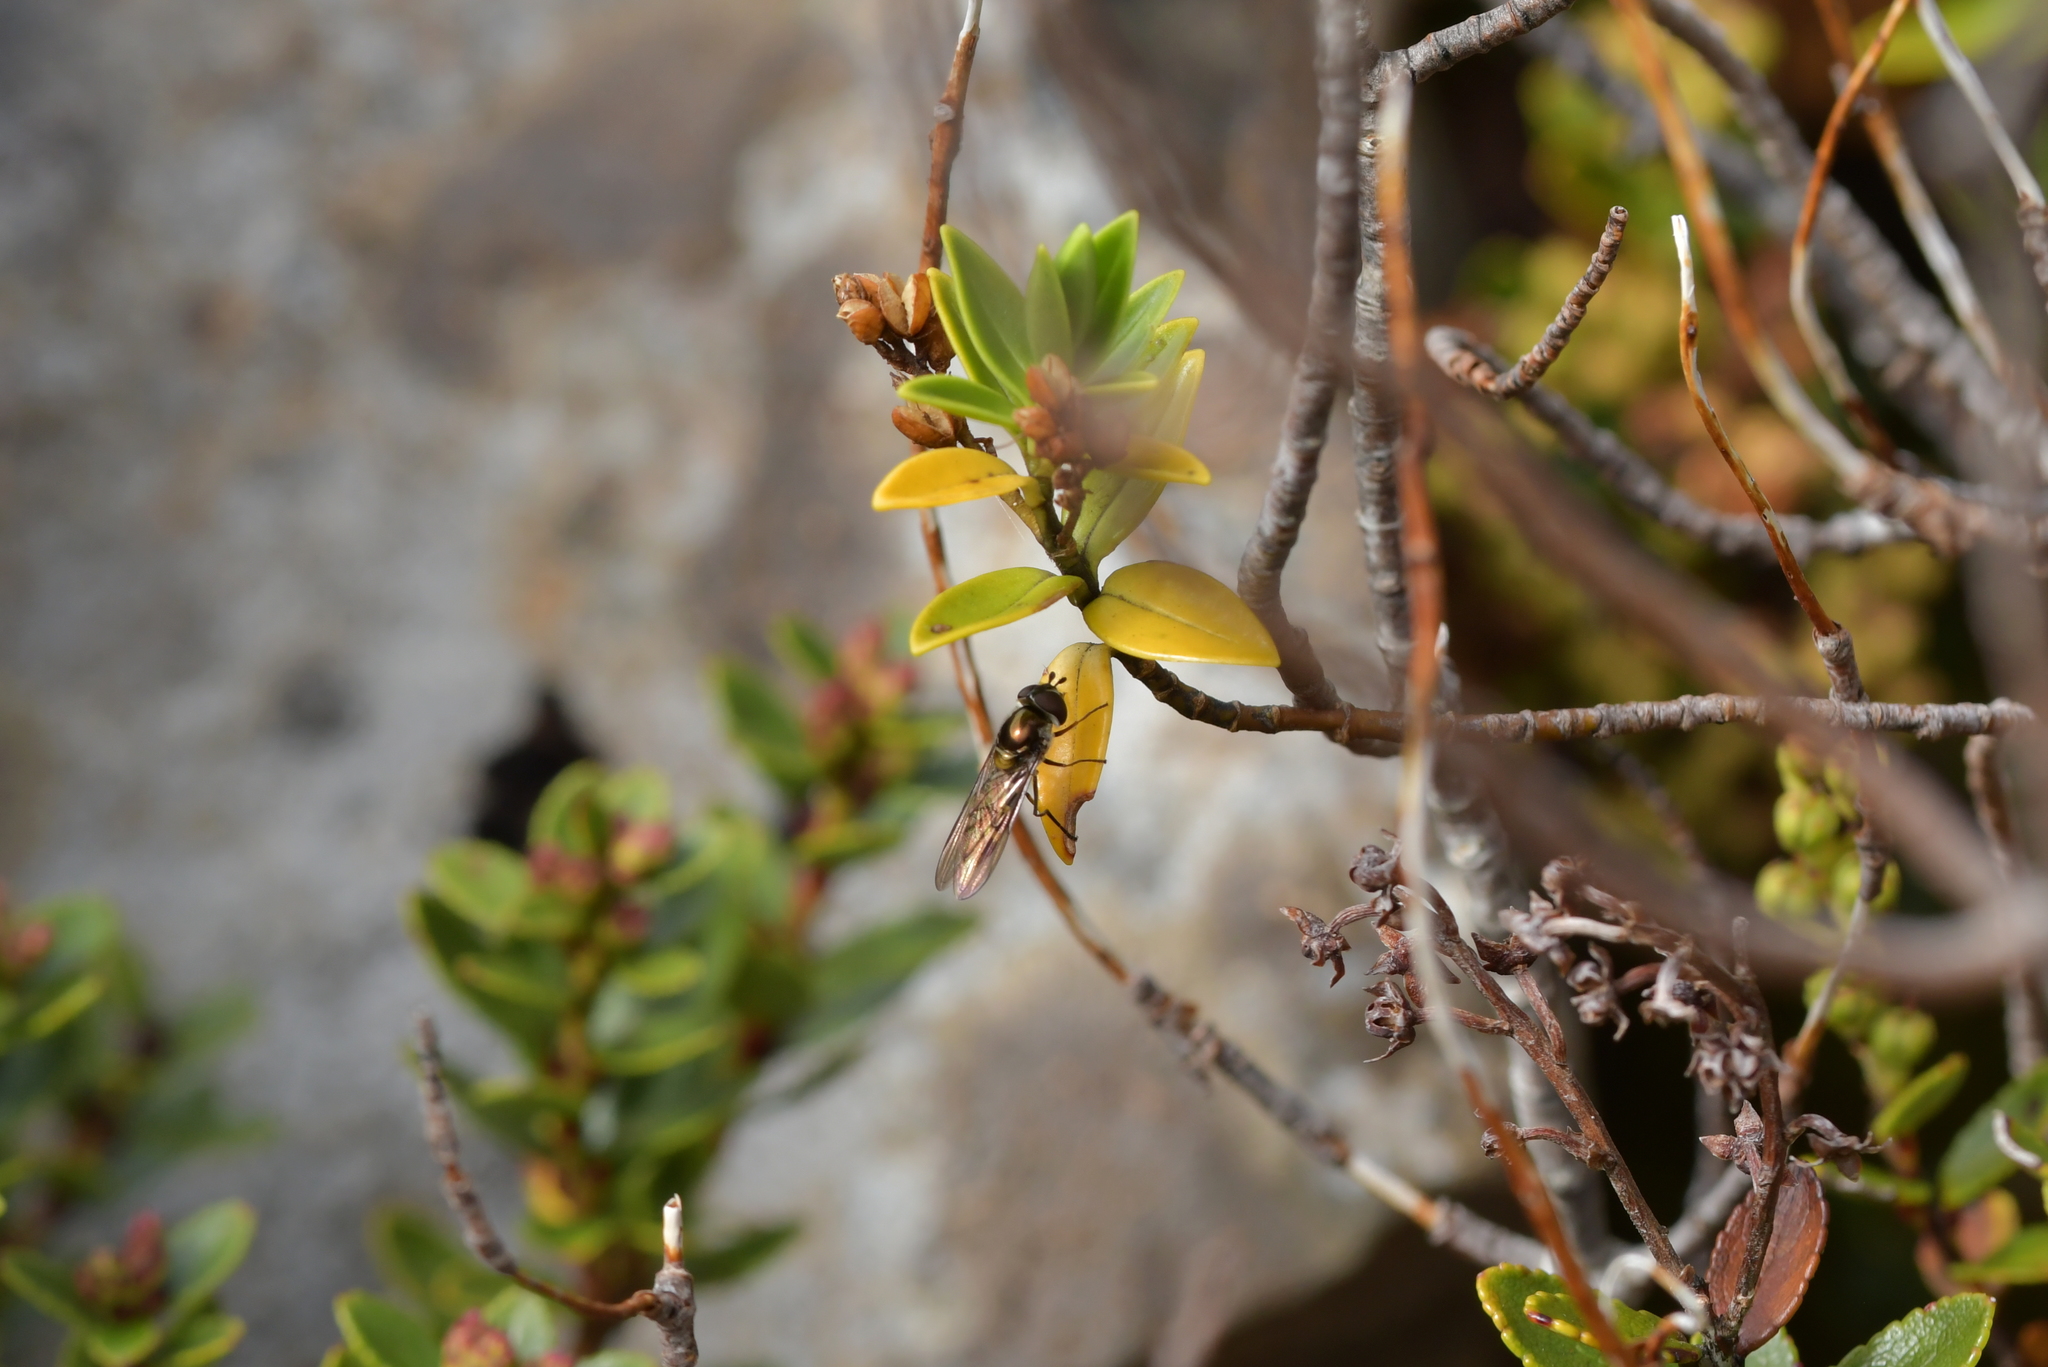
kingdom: Animalia
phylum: Arthropoda
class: Insecta
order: Diptera
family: Syrphidae
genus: Melangyna
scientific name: Melangyna novaezelandiae
